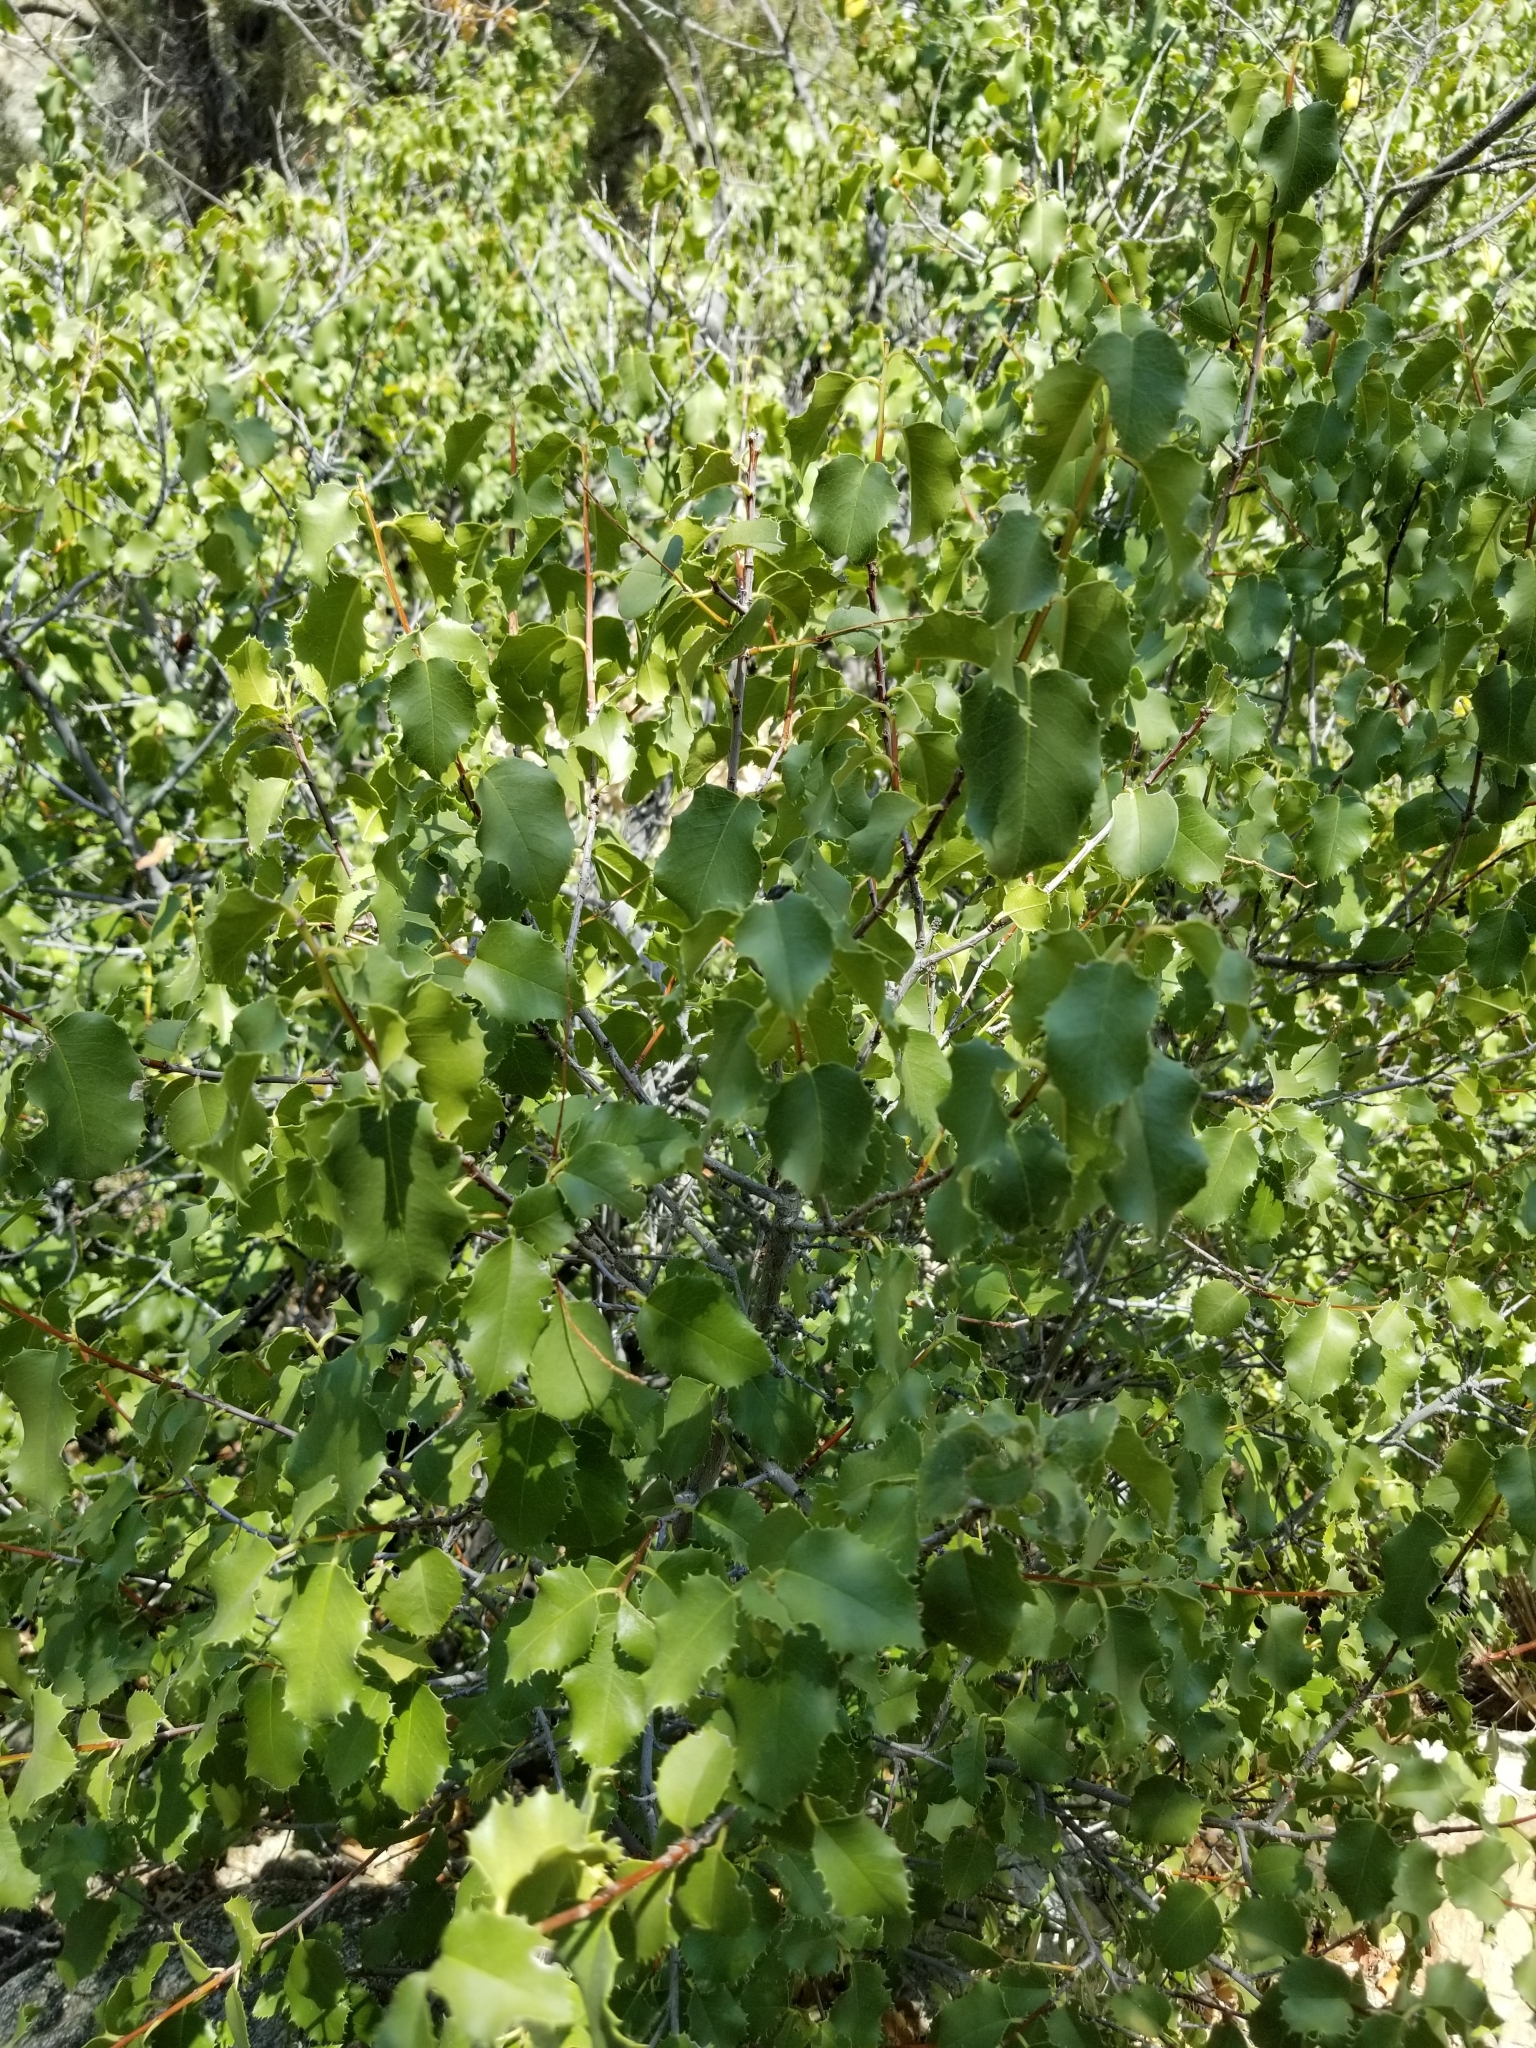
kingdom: Plantae
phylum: Tracheophyta
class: Magnoliopsida
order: Rosales
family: Rosaceae
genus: Prunus
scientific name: Prunus ilicifolia
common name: Hollyleaf cherry
